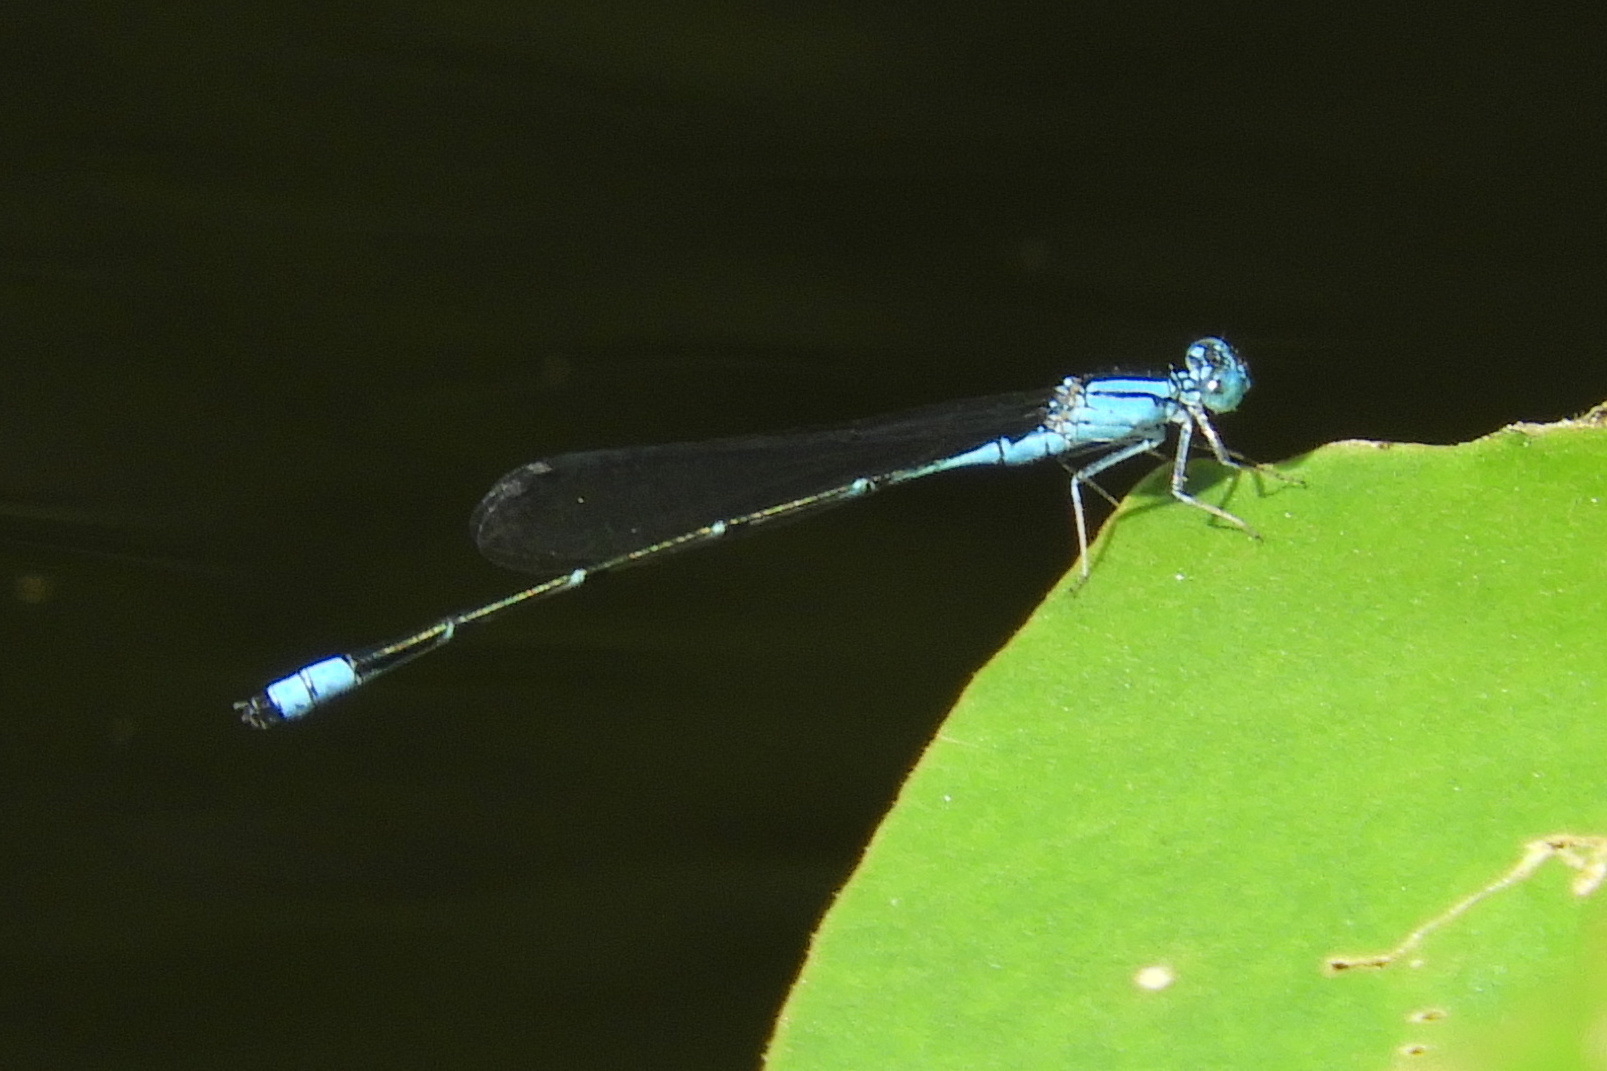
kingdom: Animalia
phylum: Arthropoda
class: Insecta
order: Odonata
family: Coenagrionidae
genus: Enallagma
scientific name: Enallagma traviatum
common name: Slender bluet
